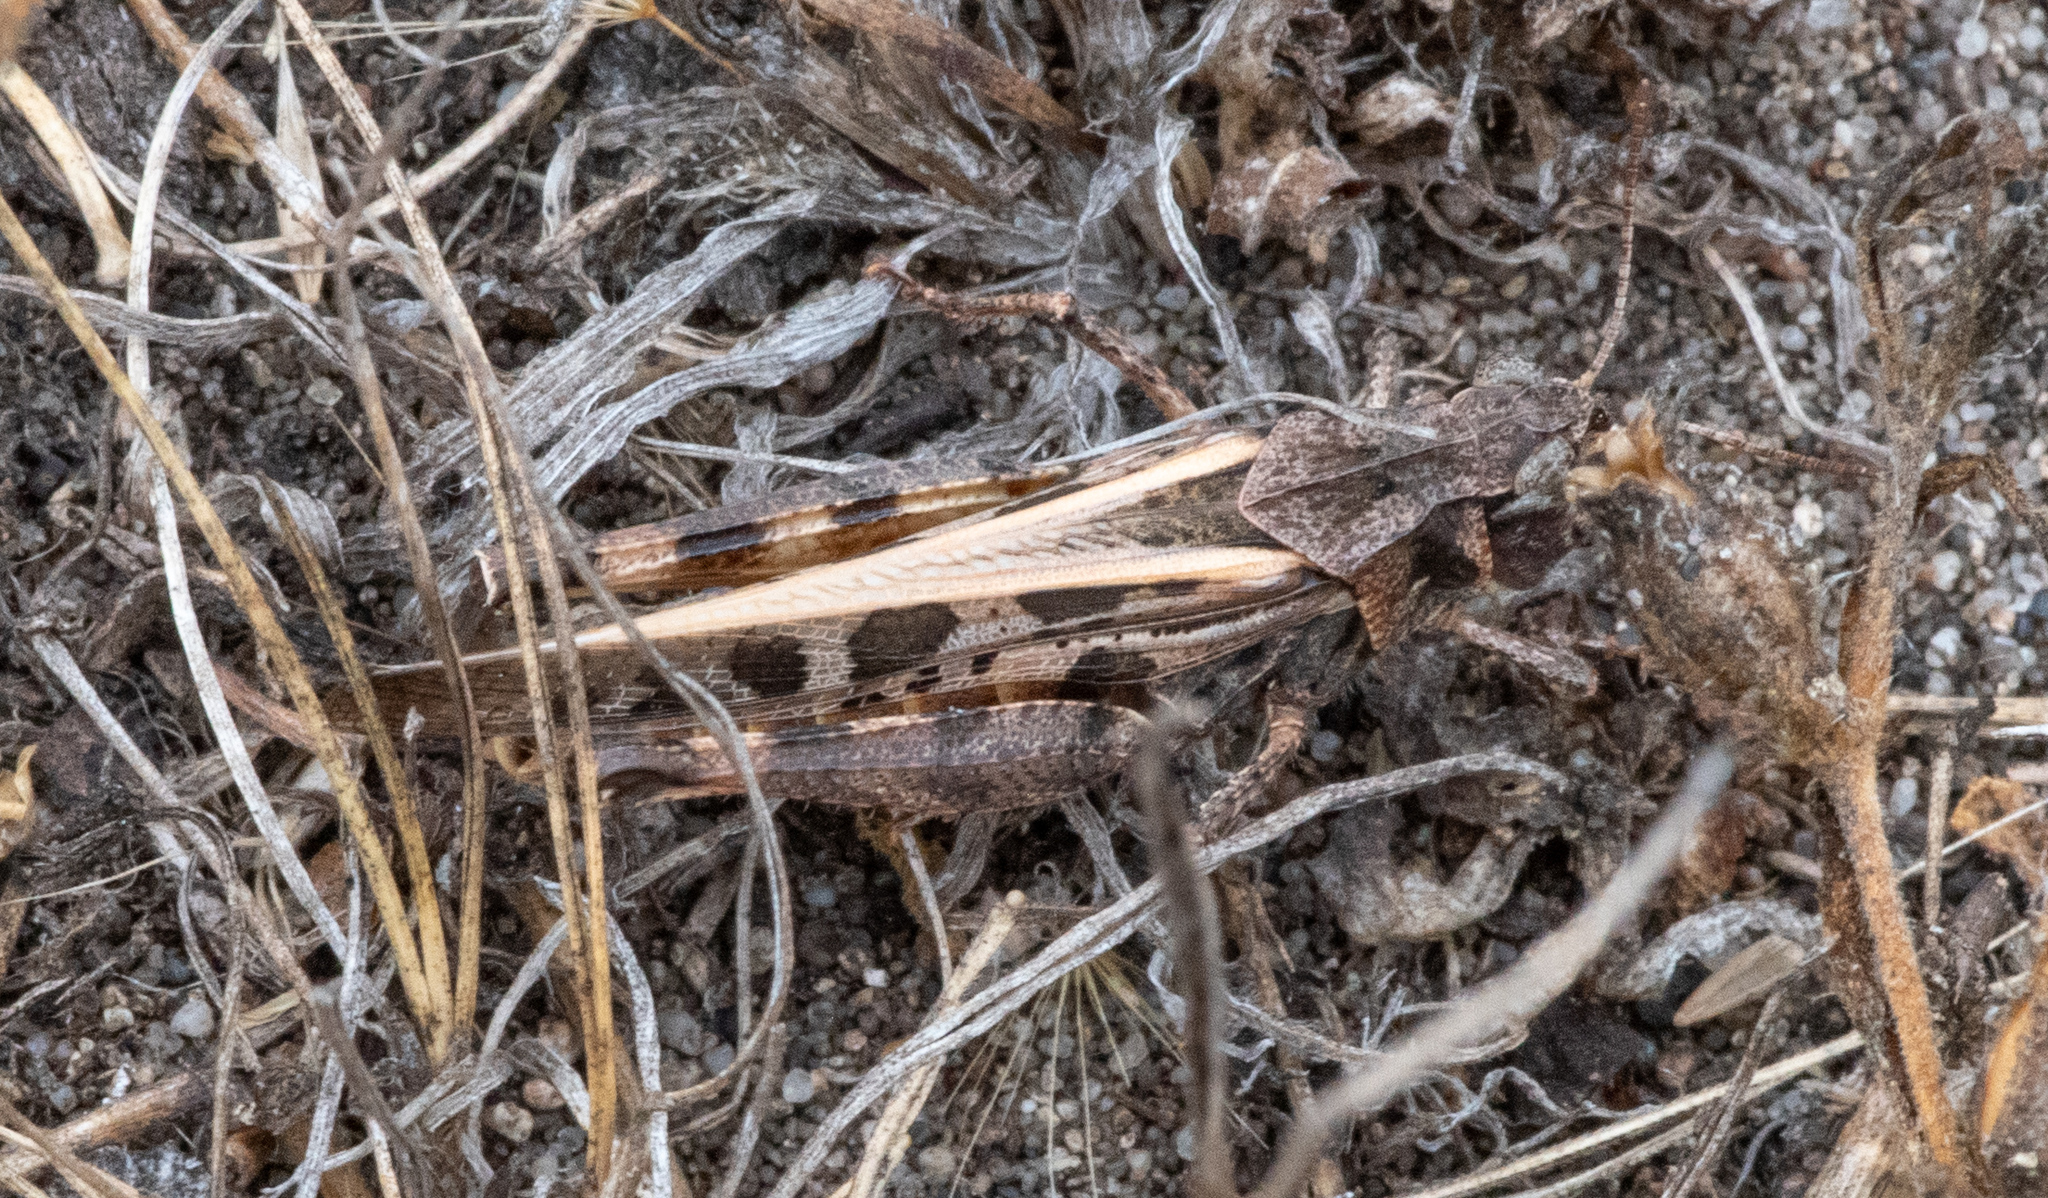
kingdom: Animalia
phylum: Arthropoda
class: Insecta
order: Orthoptera
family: Acrididae
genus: Camnula
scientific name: Camnula pellucida
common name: Clear-winged grasshopper
